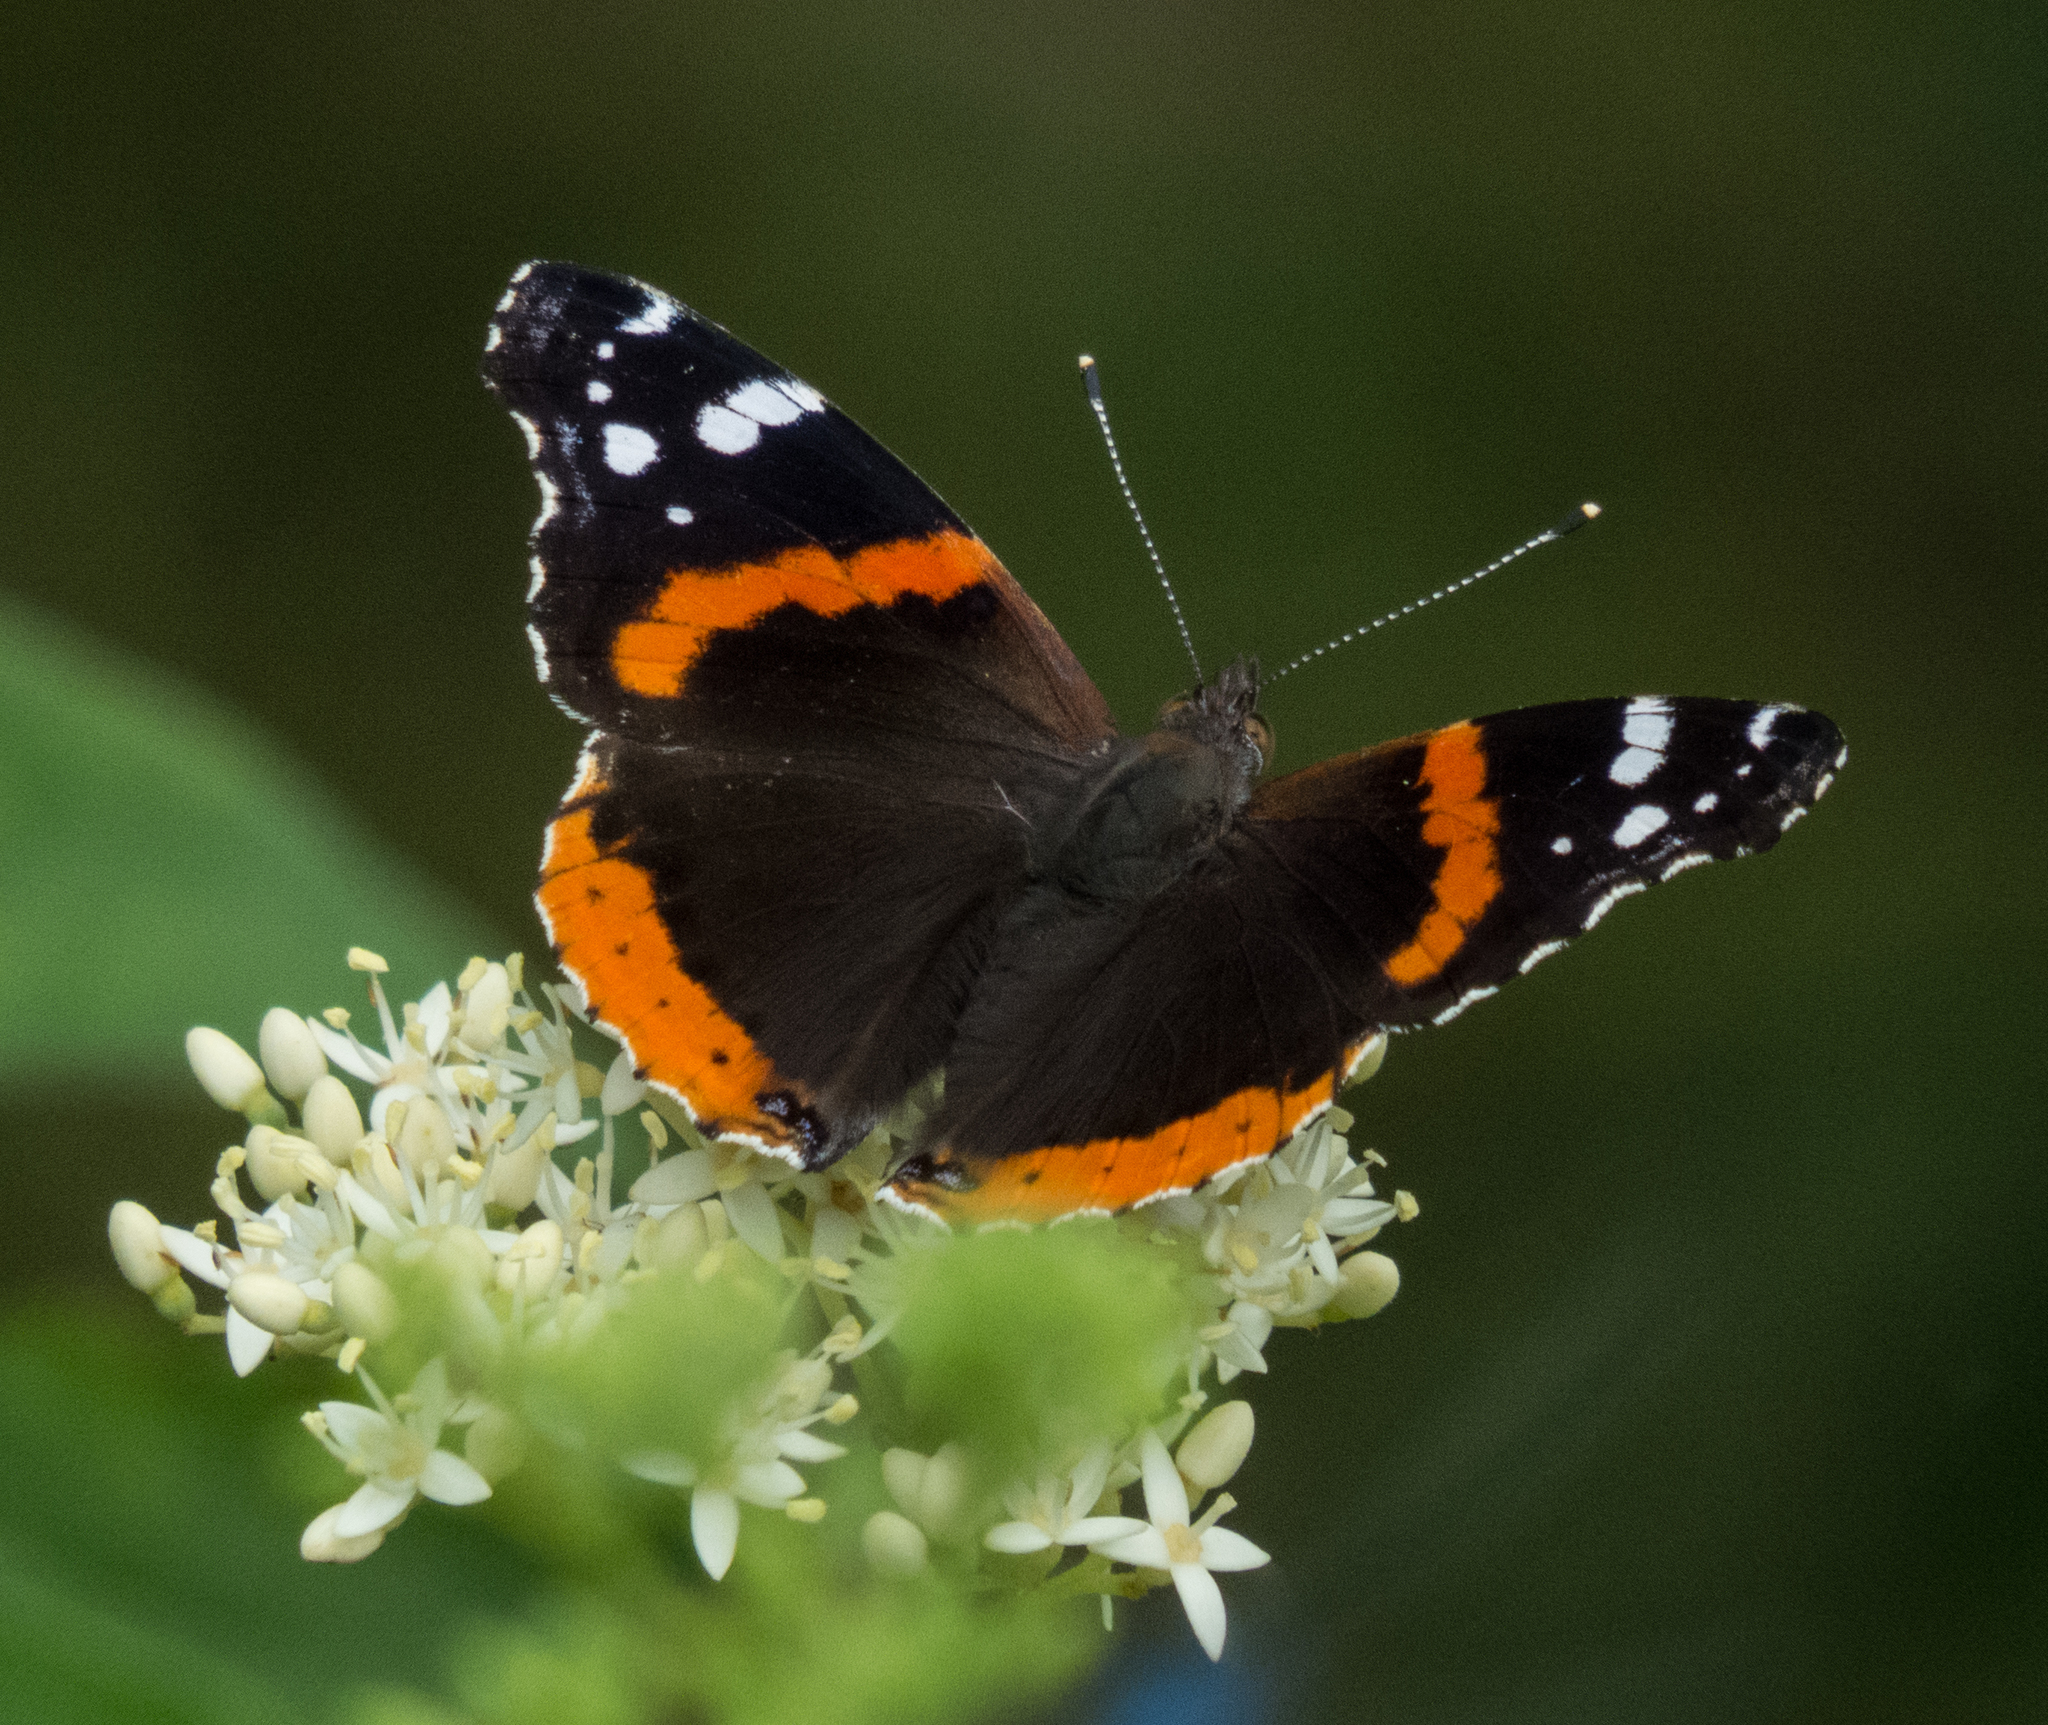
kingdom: Animalia
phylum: Arthropoda
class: Insecta
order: Lepidoptera
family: Nymphalidae
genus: Vanessa
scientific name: Vanessa atalanta
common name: Red admiral
